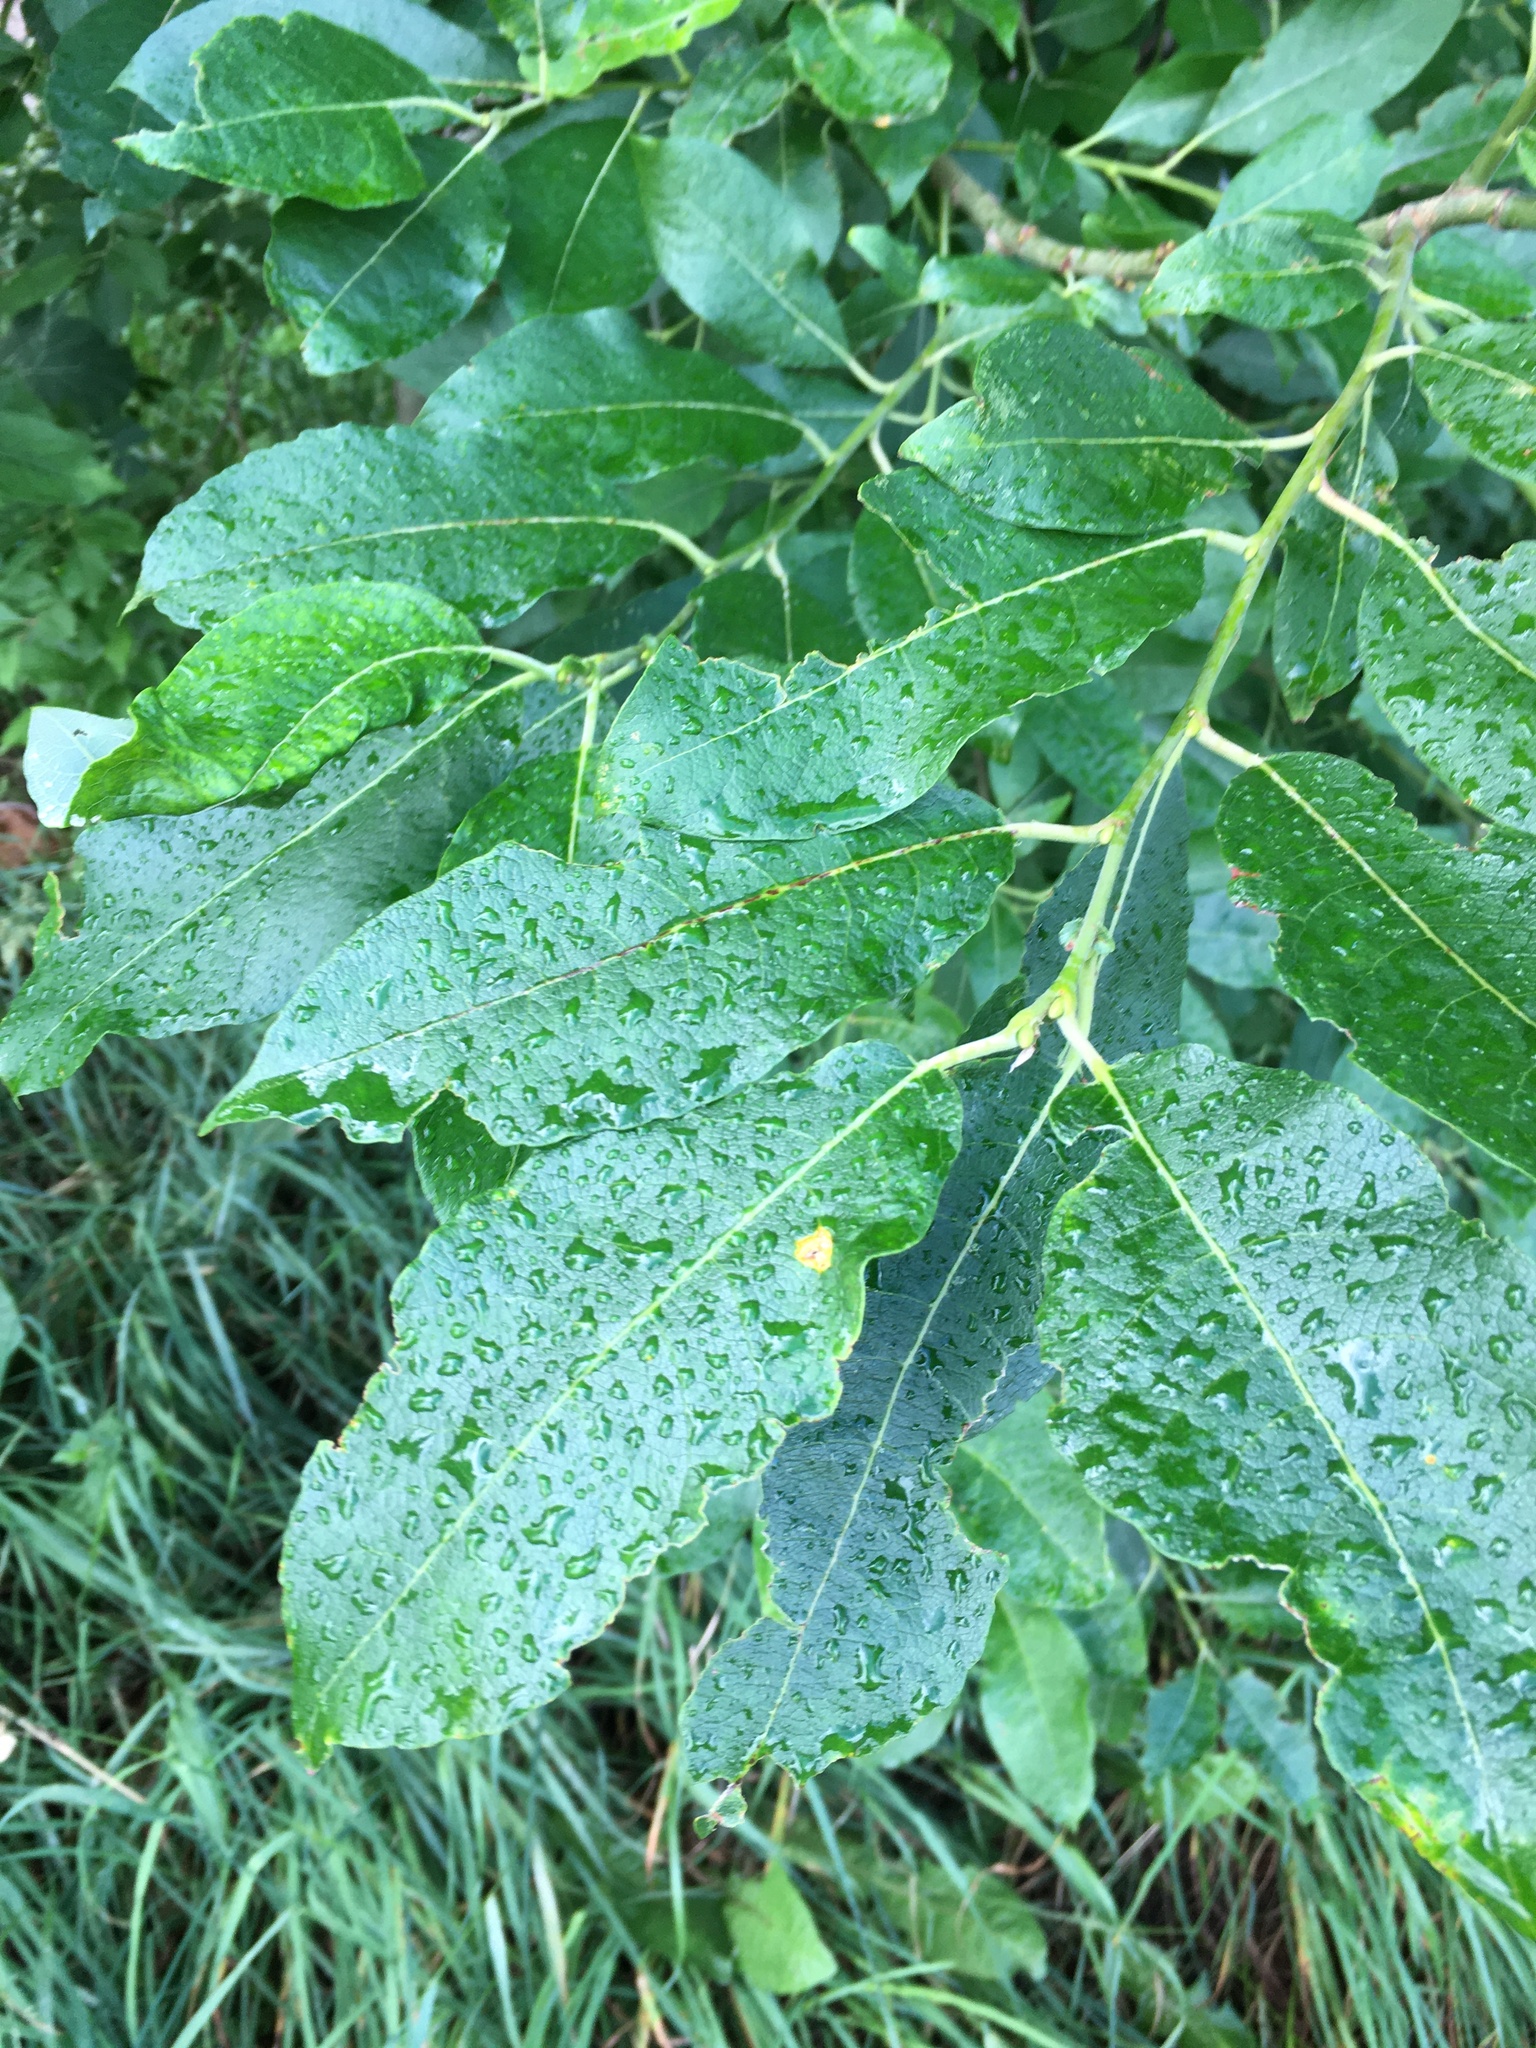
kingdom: Plantae
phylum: Tracheophyta
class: Magnoliopsida
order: Malpighiales
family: Salicaceae
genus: Salix
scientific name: Salix caprea
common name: Goat willow
